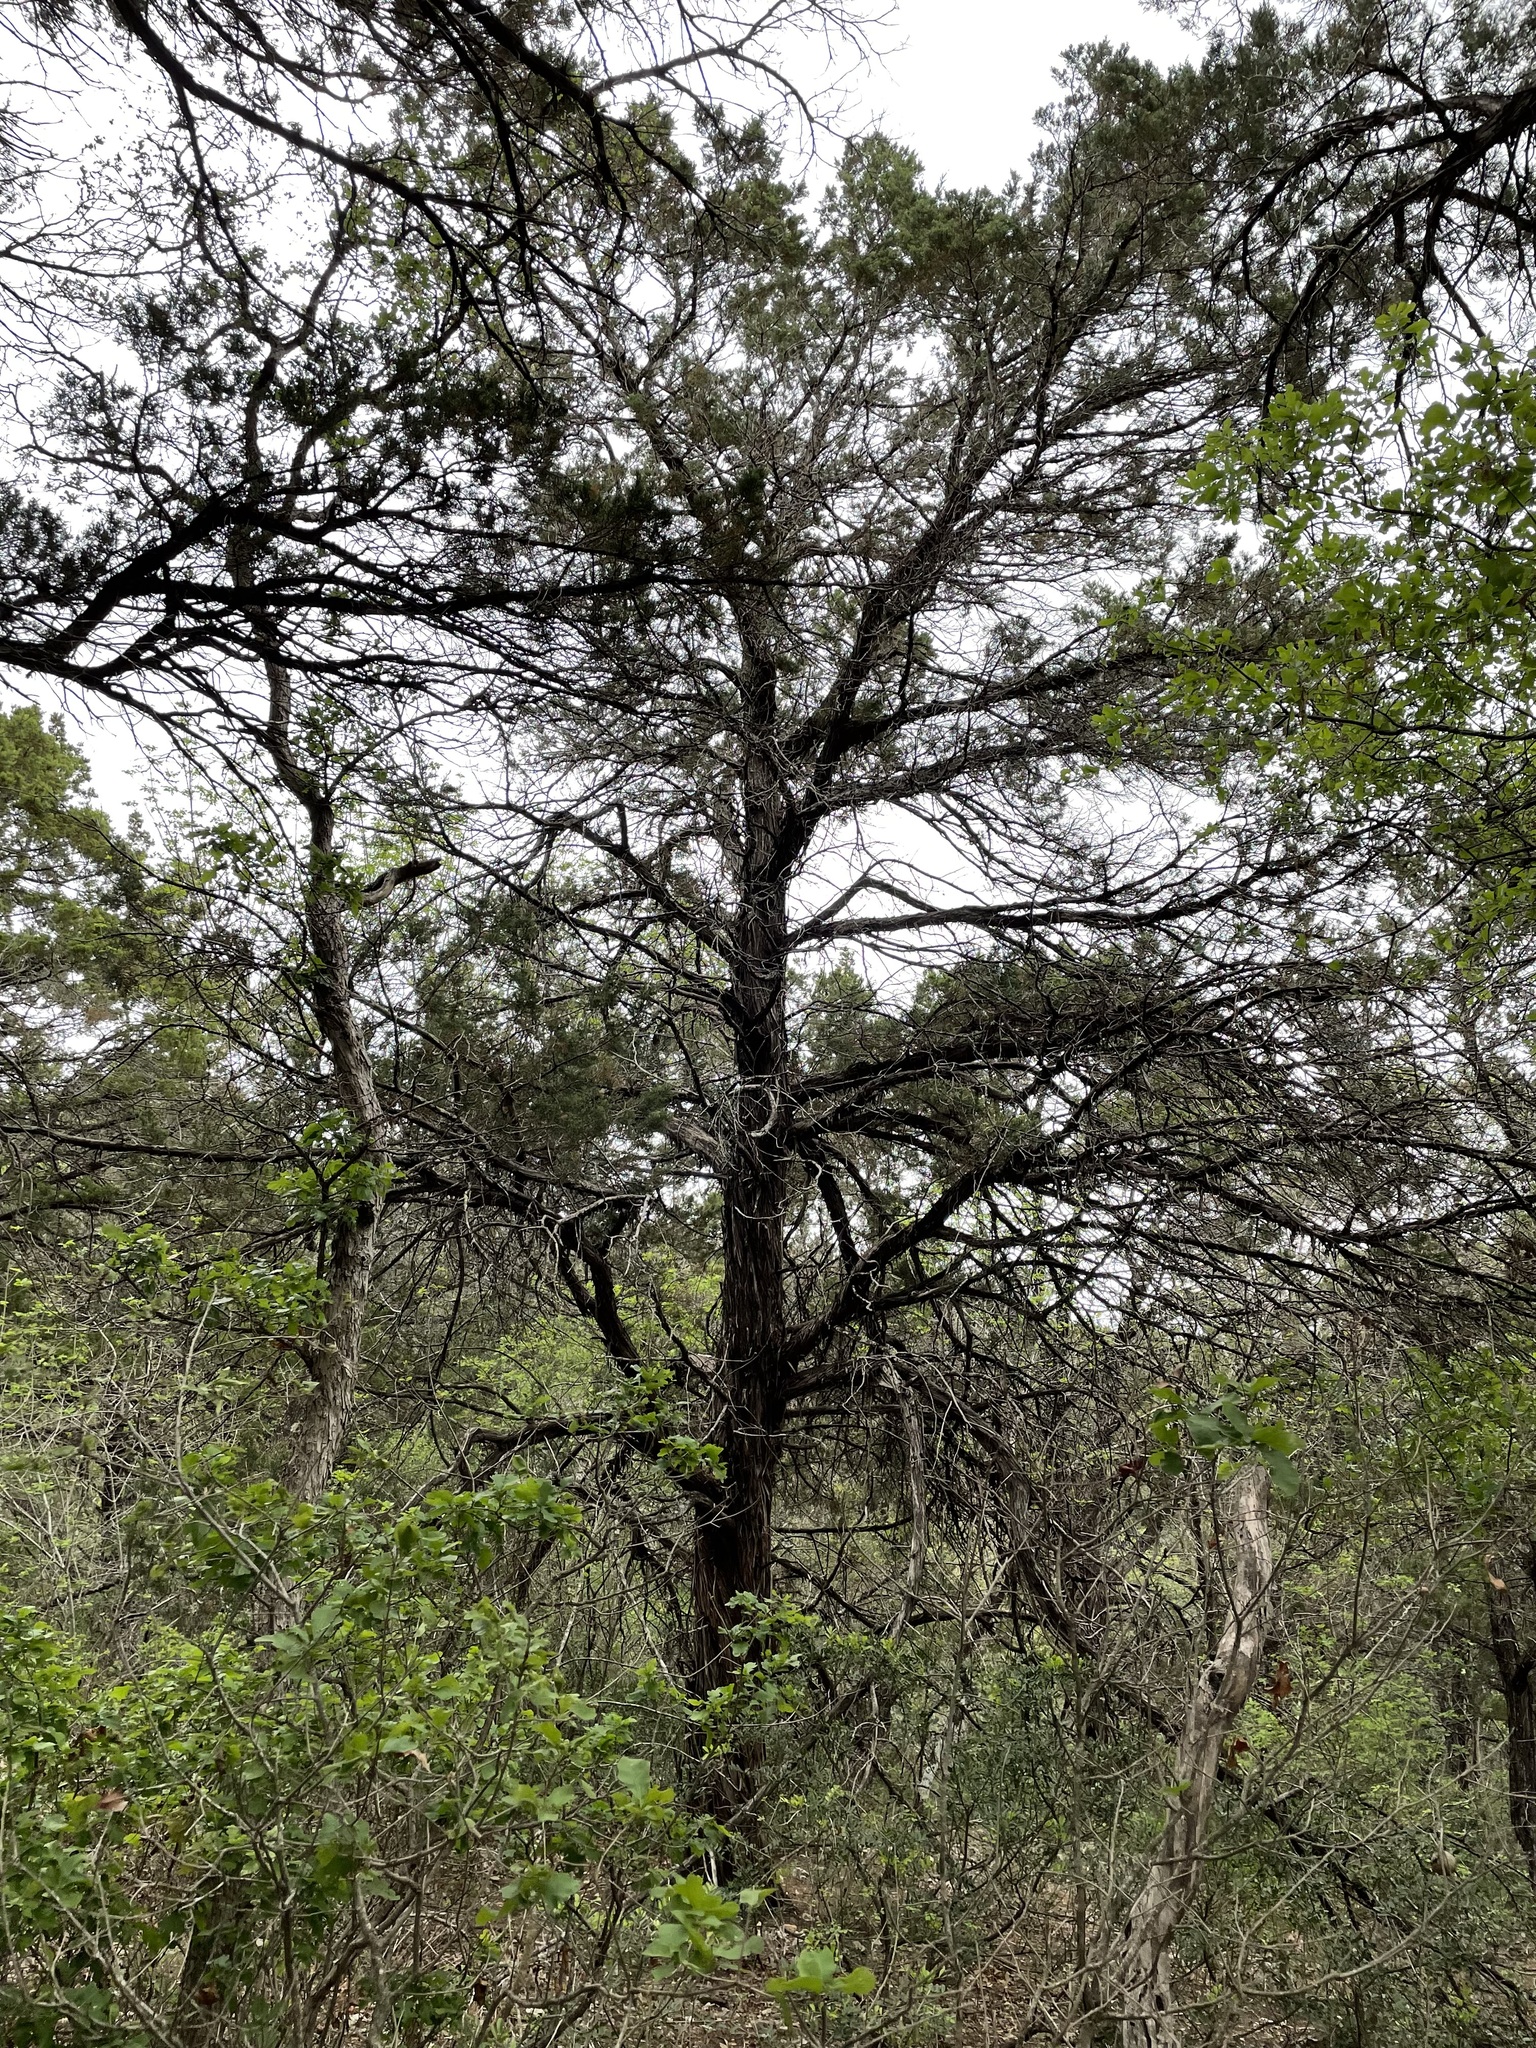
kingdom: Plantae
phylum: Tracheophyta
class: Pinopsida
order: Pinales
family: Cupressaceae
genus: Juniperus
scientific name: Juniperus ashei
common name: Mexican juniper
